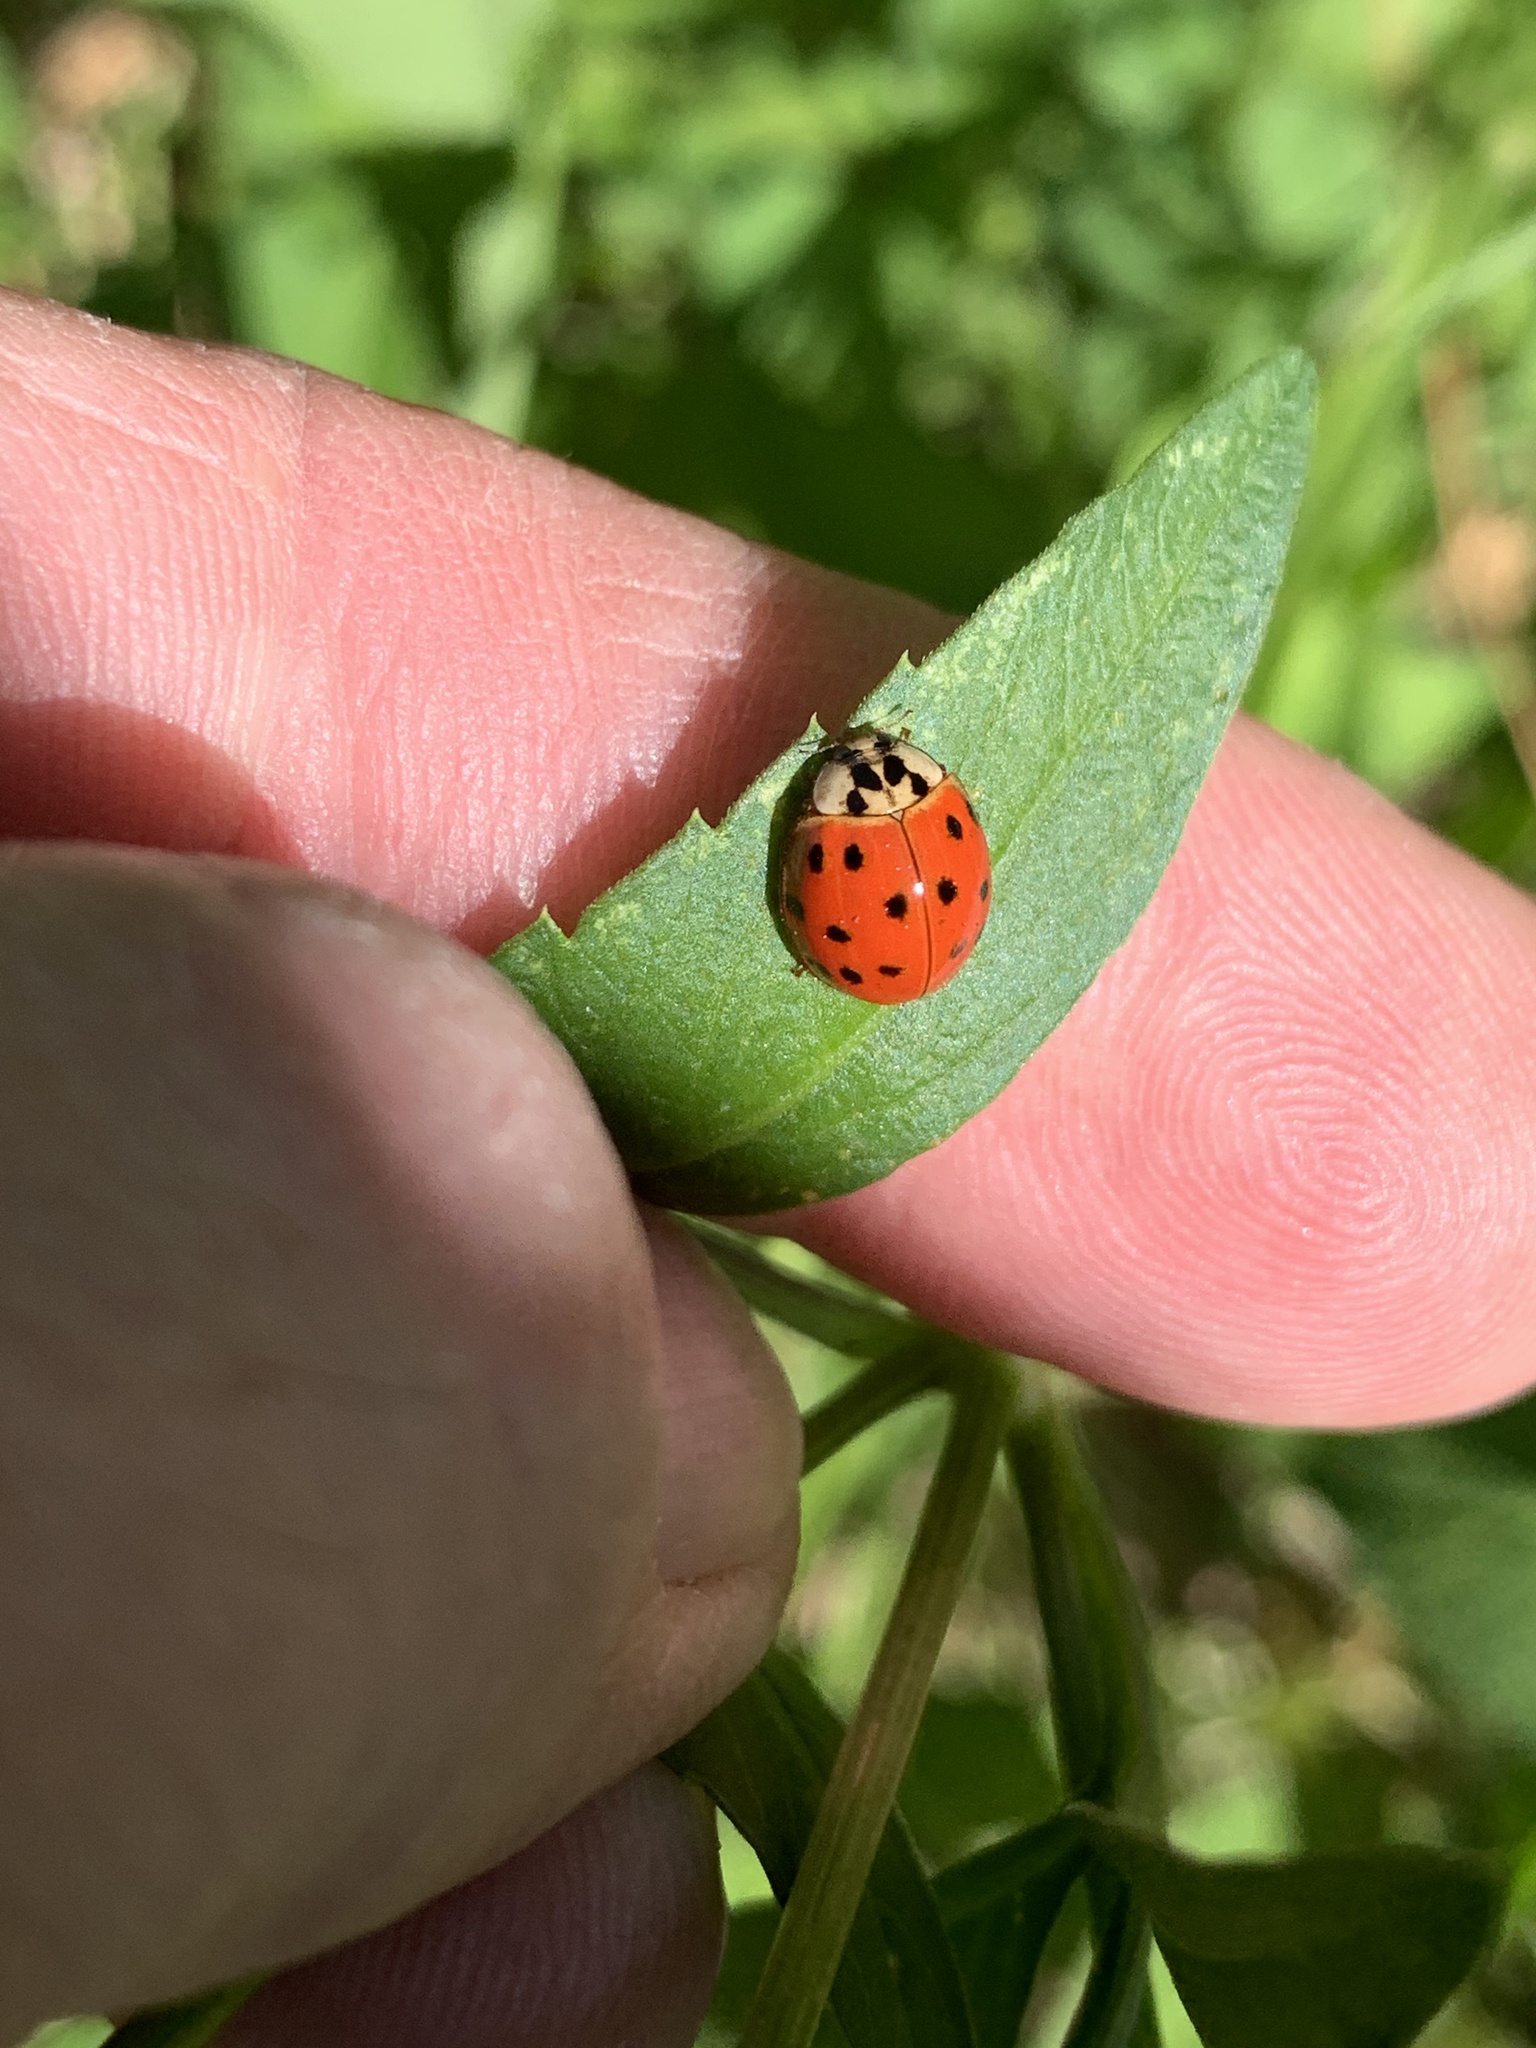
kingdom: Animalia
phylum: Arthropoda
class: Insecta
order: Coleoptera
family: Coccinellidae
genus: Harmonia
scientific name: Harmonia axyridis
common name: Harlequin ladybird
